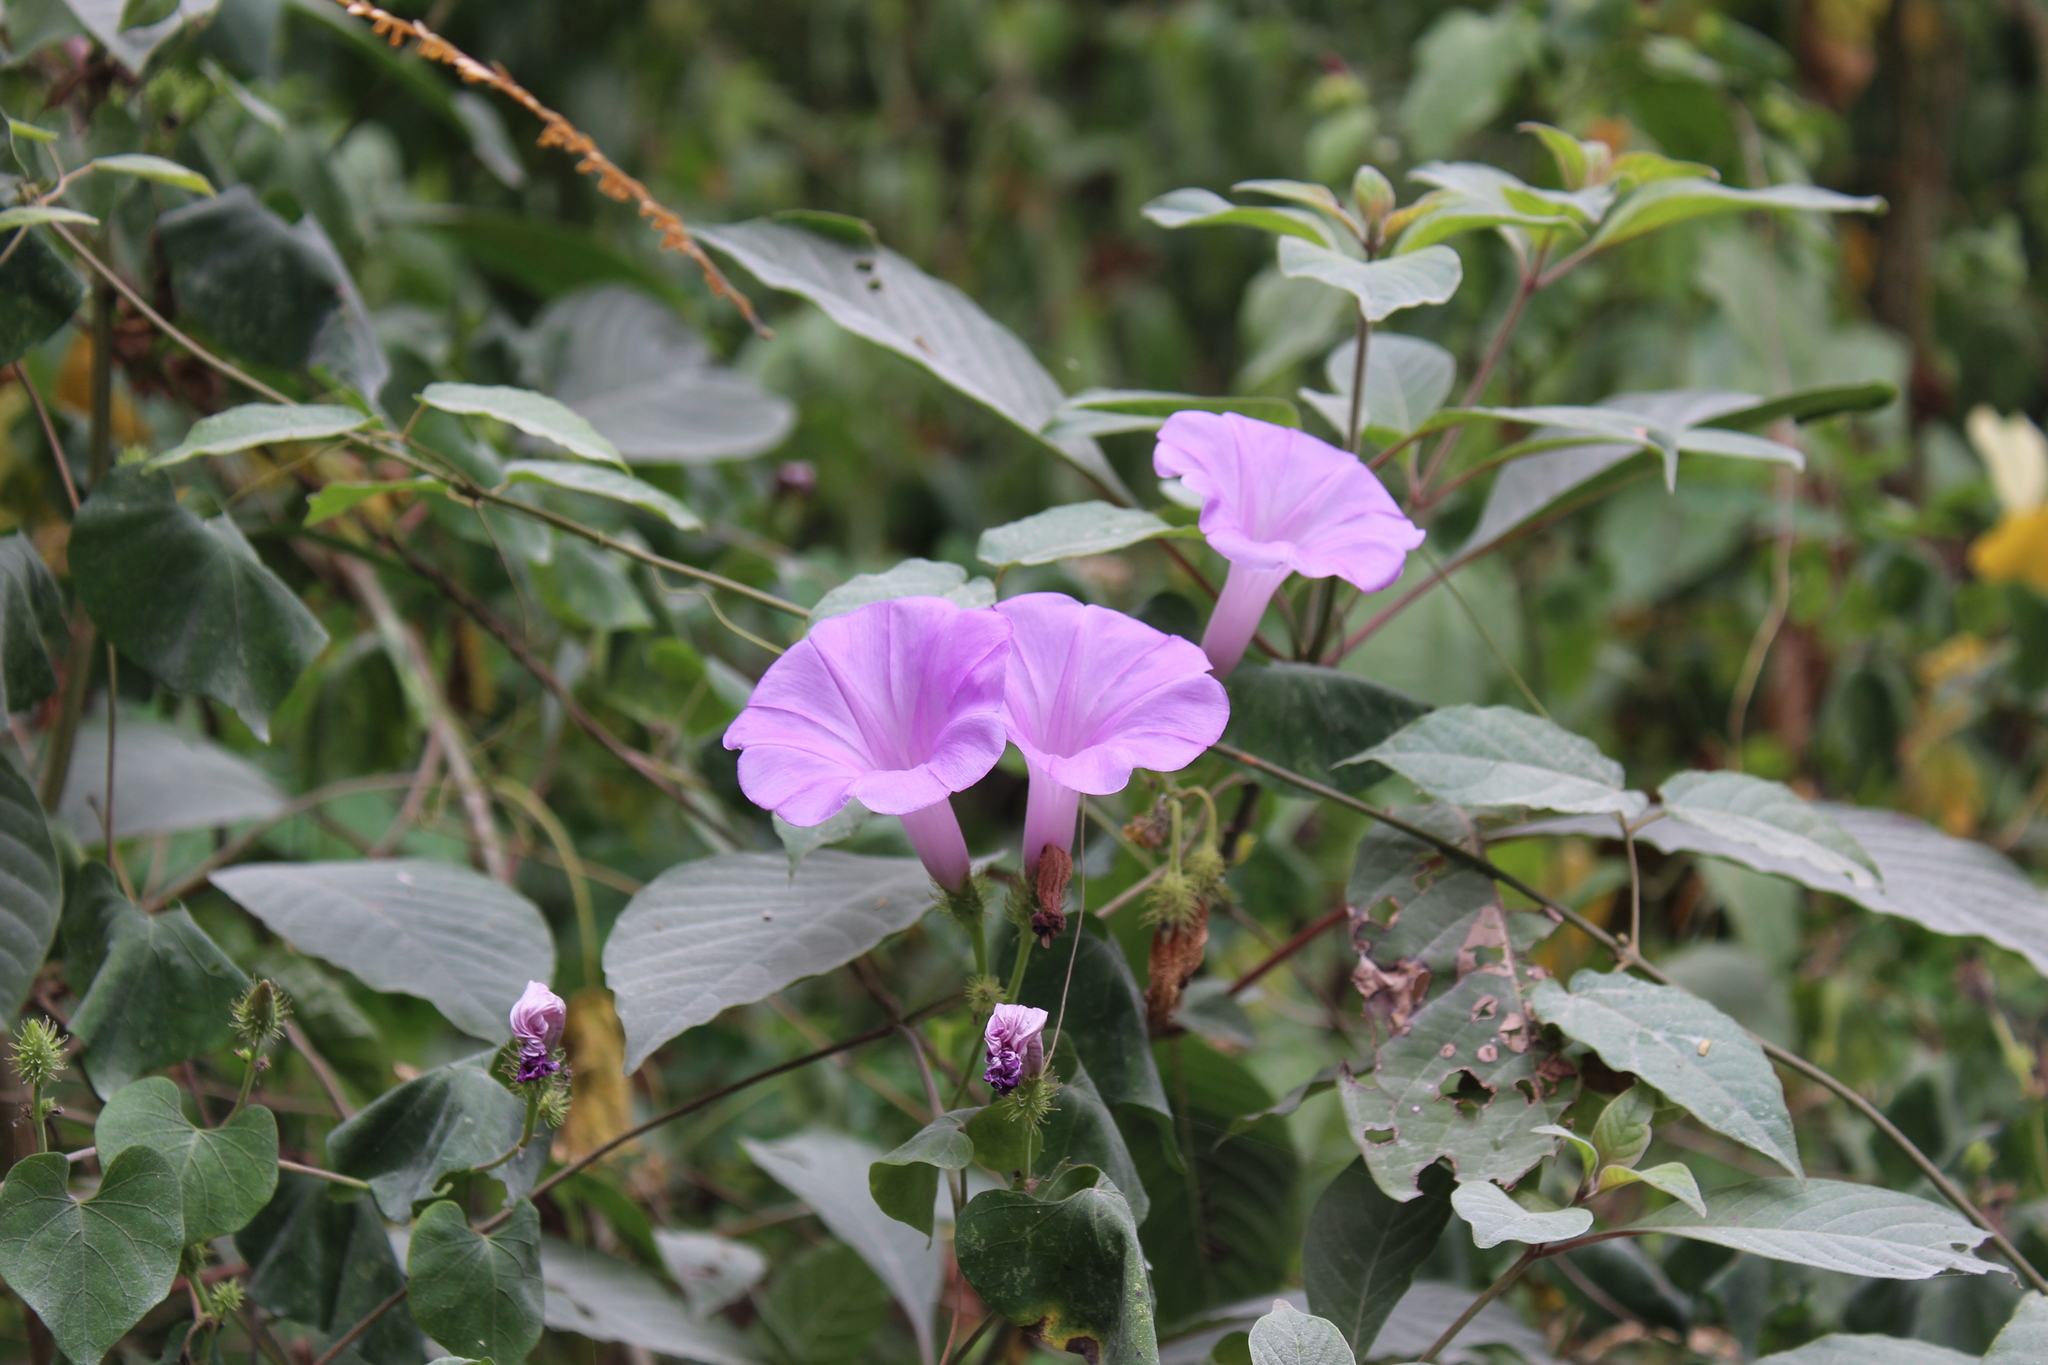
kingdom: Plantae
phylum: Tracheophyta
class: Magnoliopsida
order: Solanales
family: Convolvulaceae
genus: Ipomoea
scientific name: Ipomoea crinicalyx
